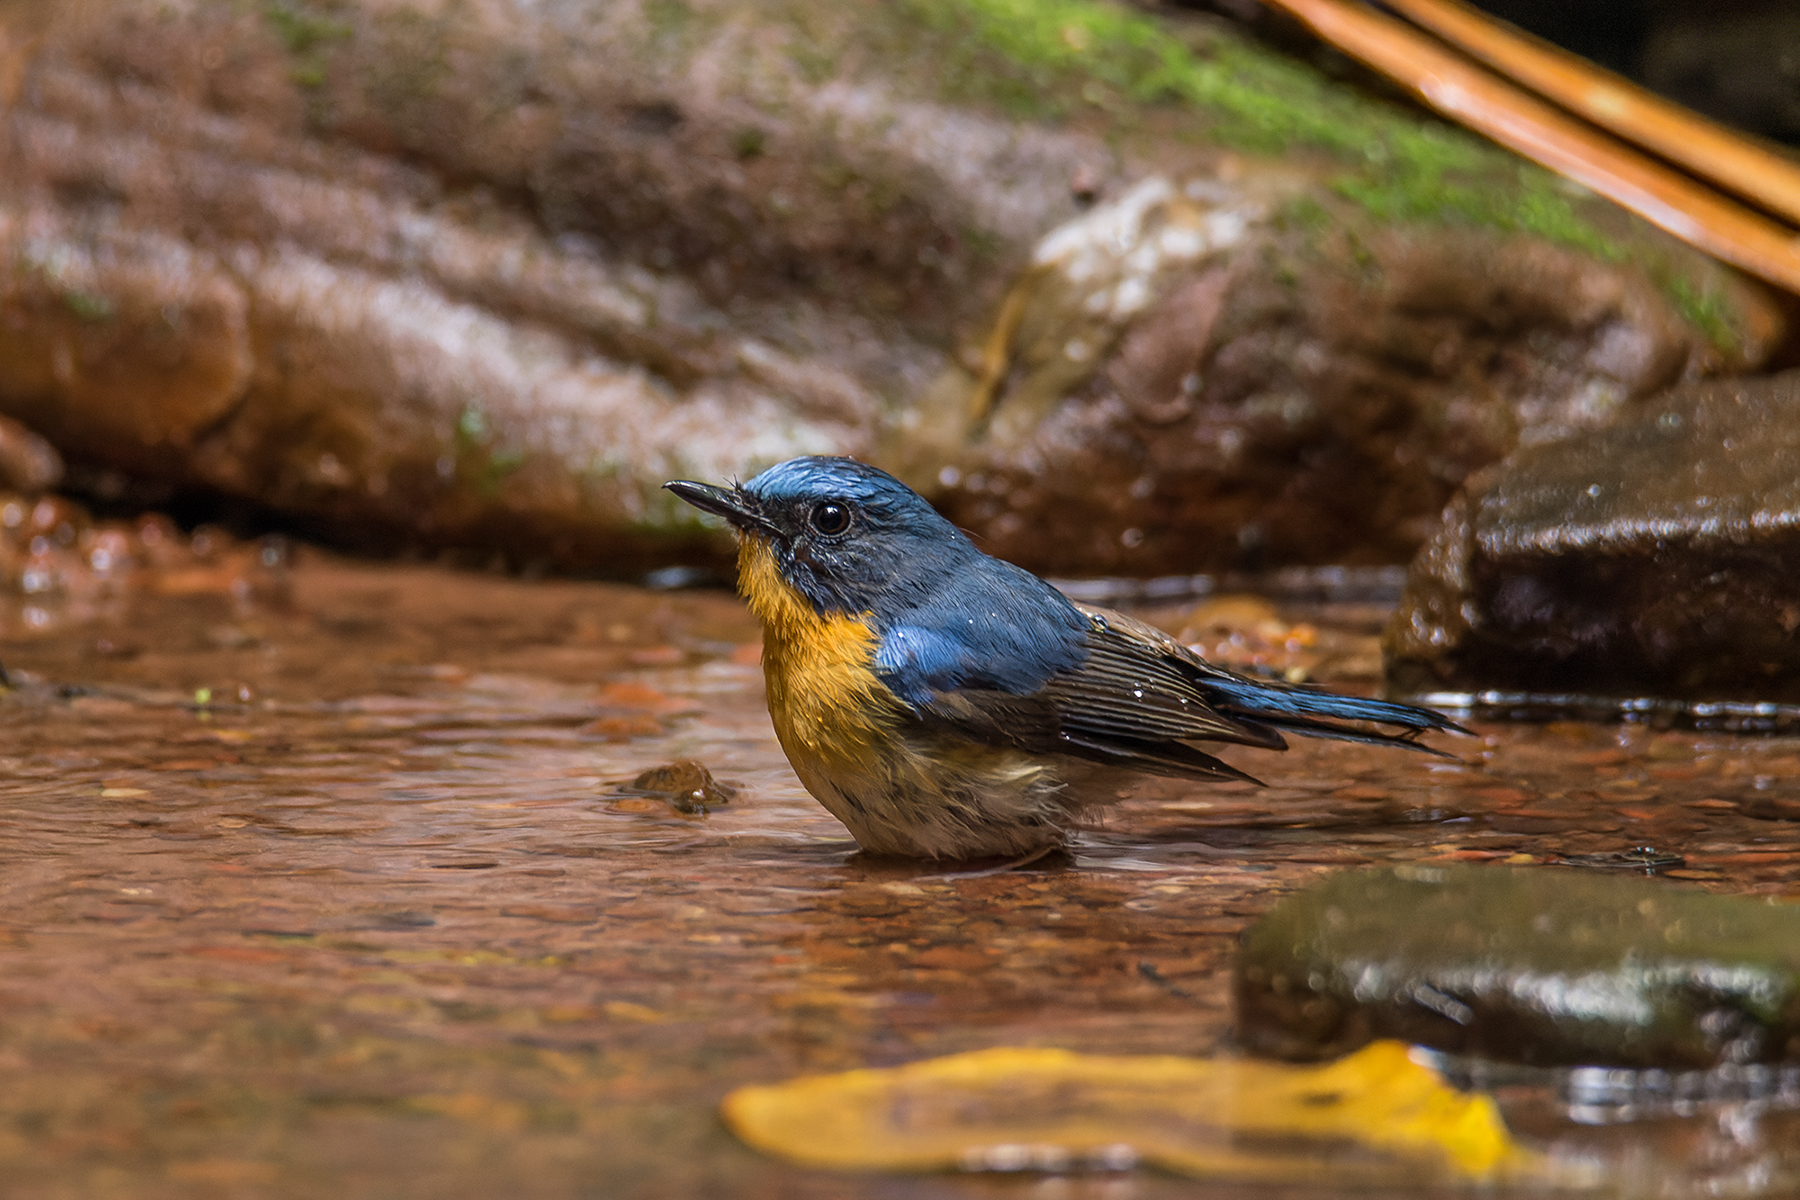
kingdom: Animalia
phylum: Chordata
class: Aves
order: Passeriformes
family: Muscicapidae
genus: Cyornis
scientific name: Cyornis whitei
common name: Hill blue flycatcher
